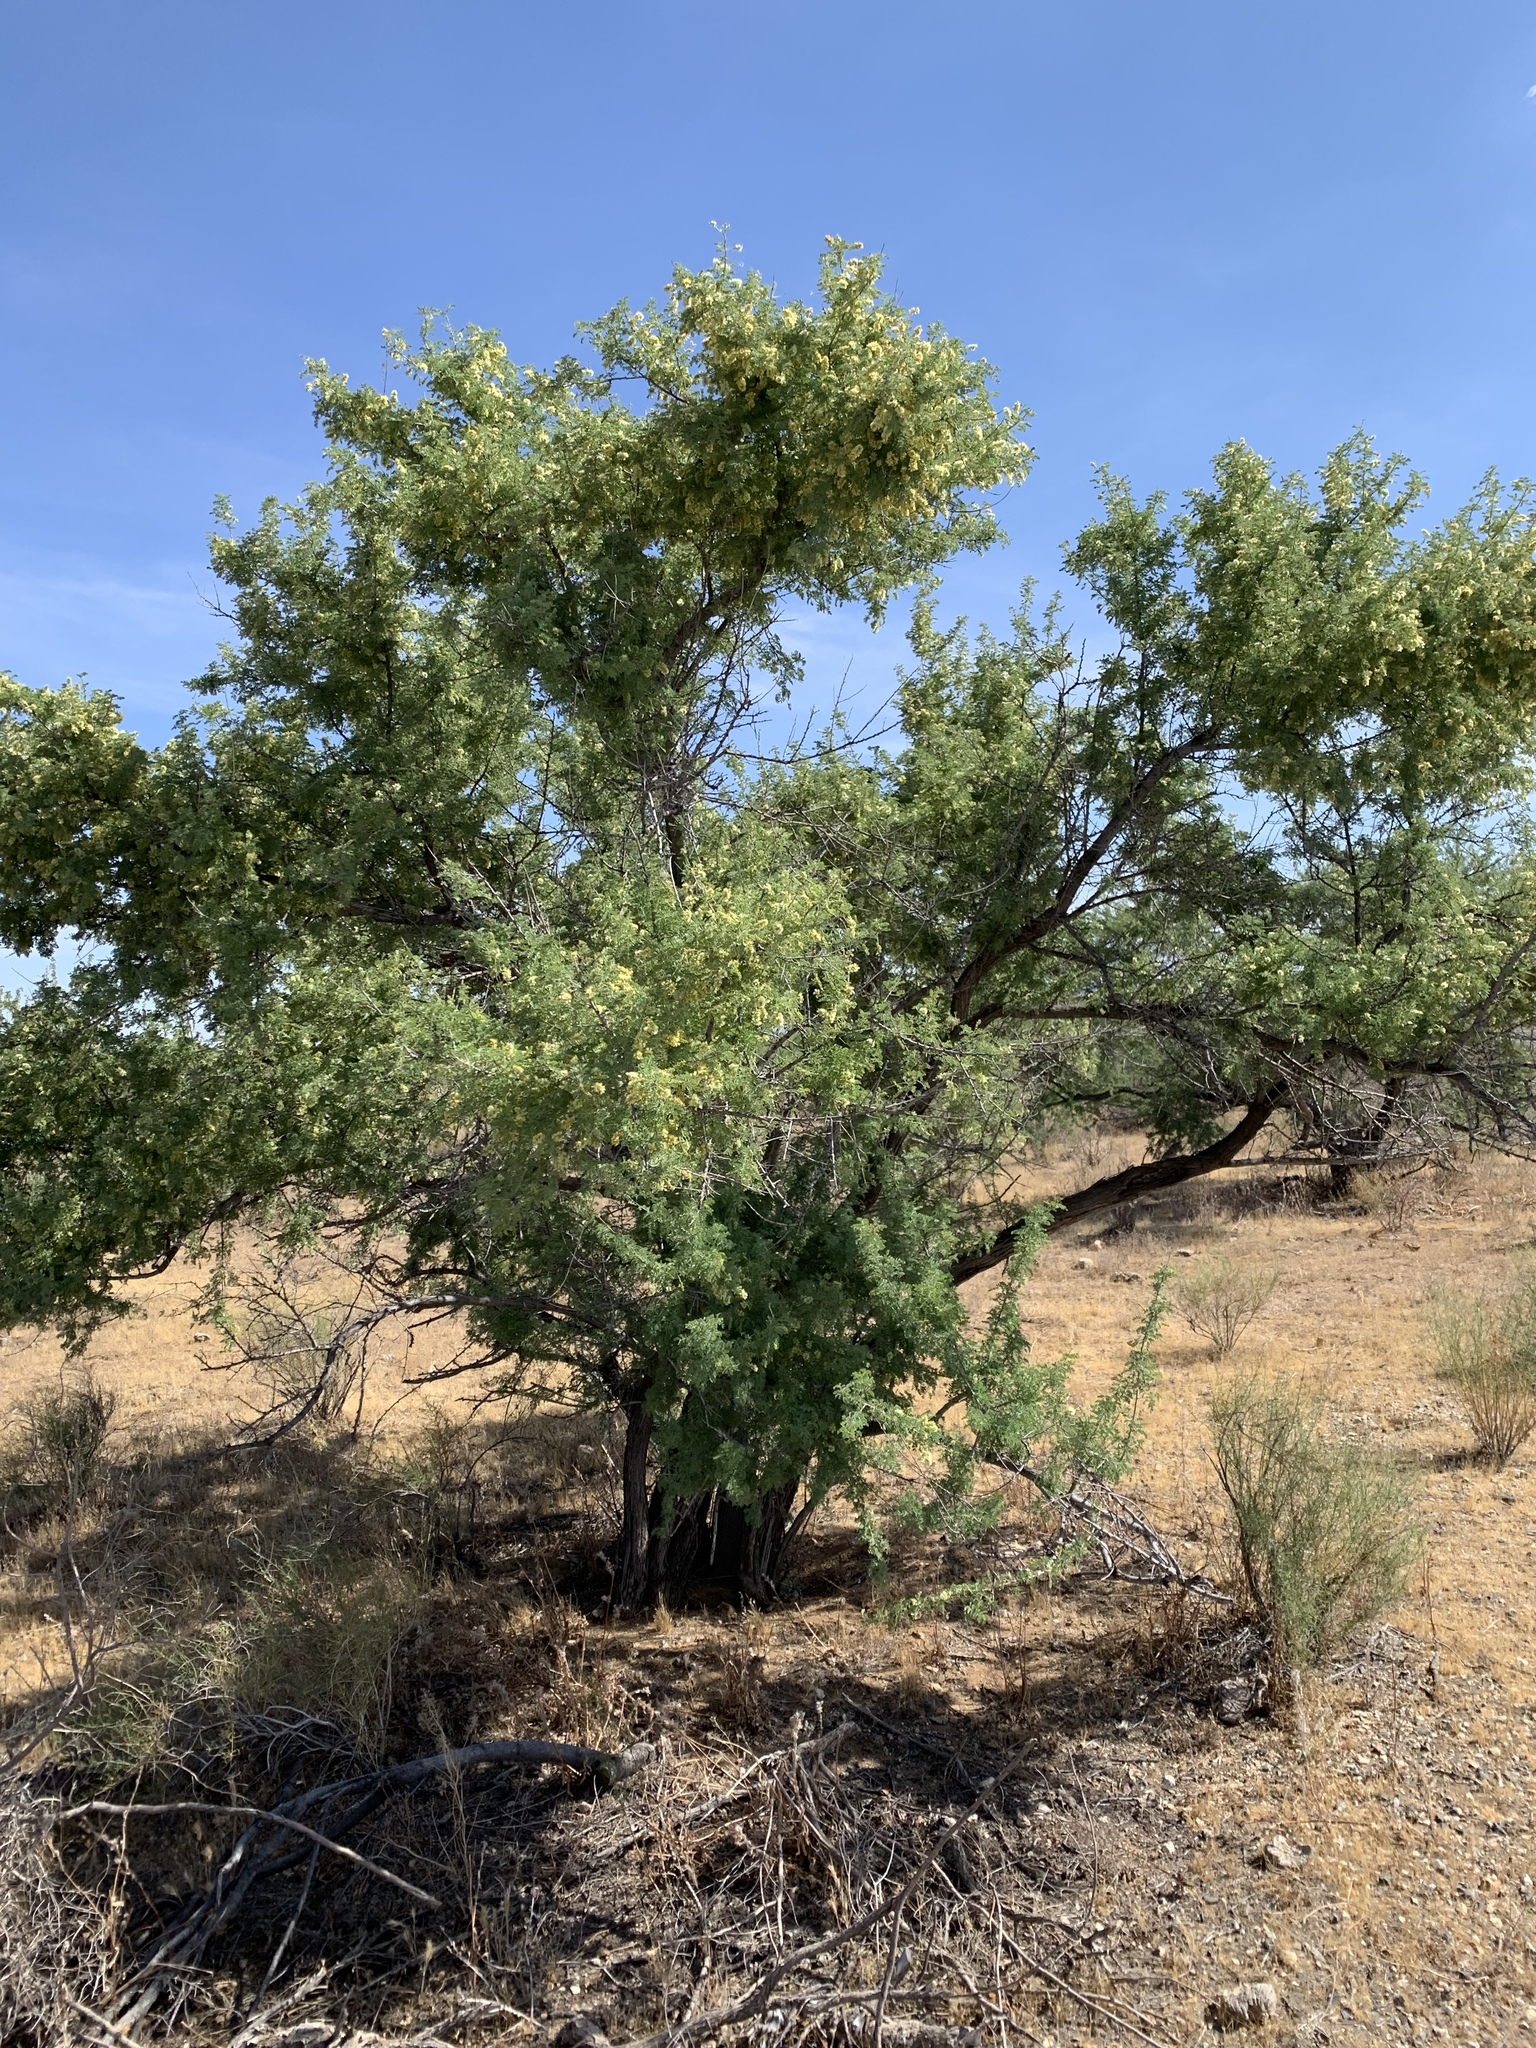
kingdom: Plantae
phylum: Tracheophyta
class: Magnoliopsida
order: Fabales
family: Fabaceae
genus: Senegalia
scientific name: Senegalia greggii
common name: Texas-mimosa
